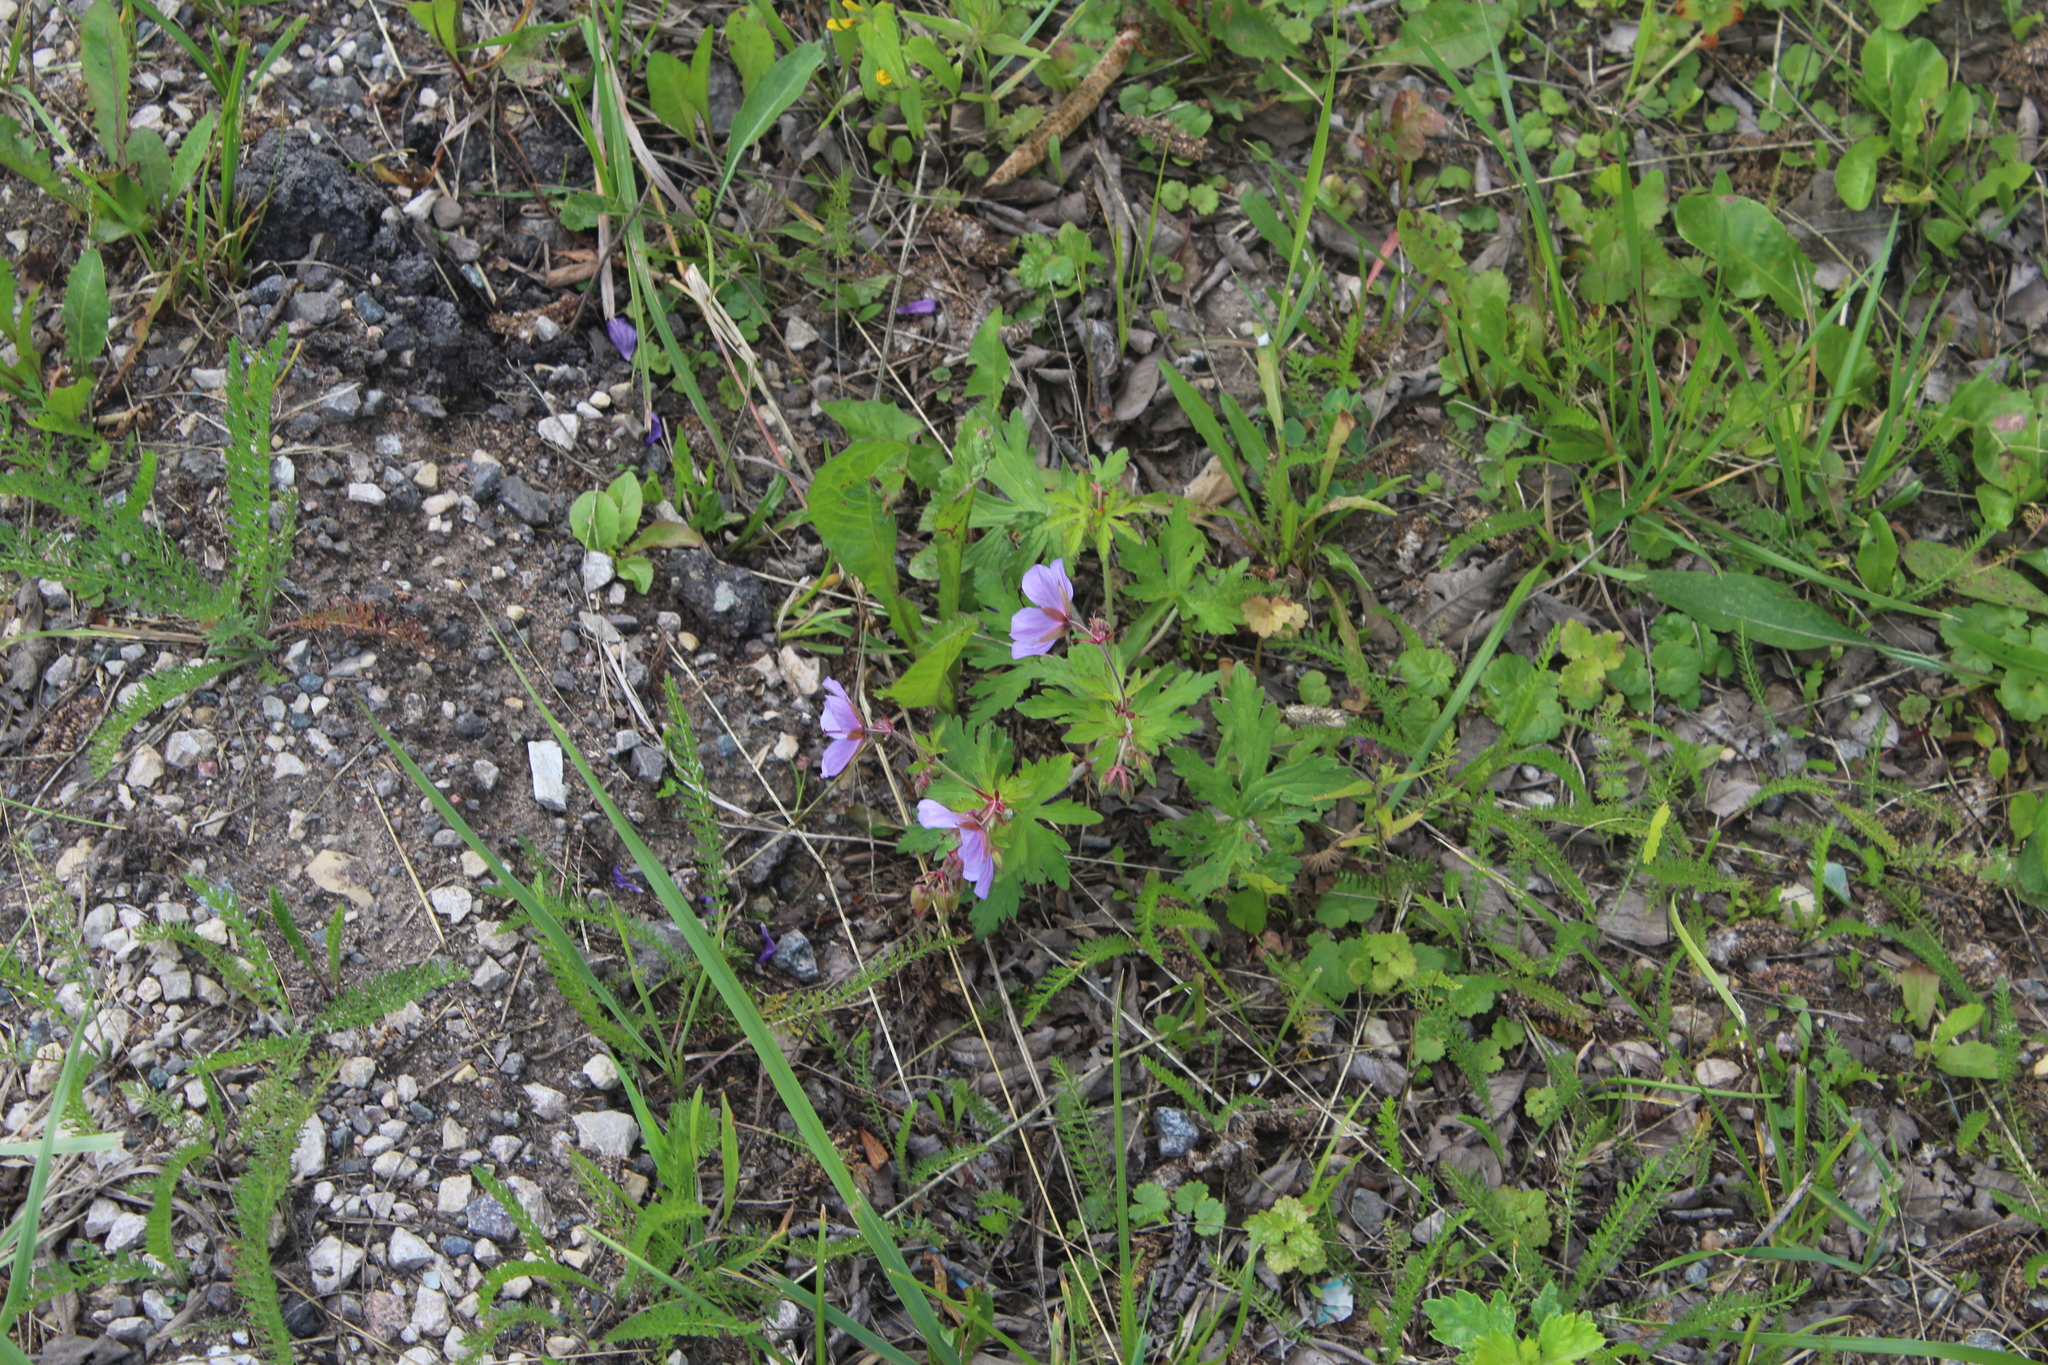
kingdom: Plantae
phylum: Tracheophyta
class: Magnoliopsida
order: Geraniales
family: Geraniaceae
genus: Geranium
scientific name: Geranium pratense
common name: Meadow crane's-bill
